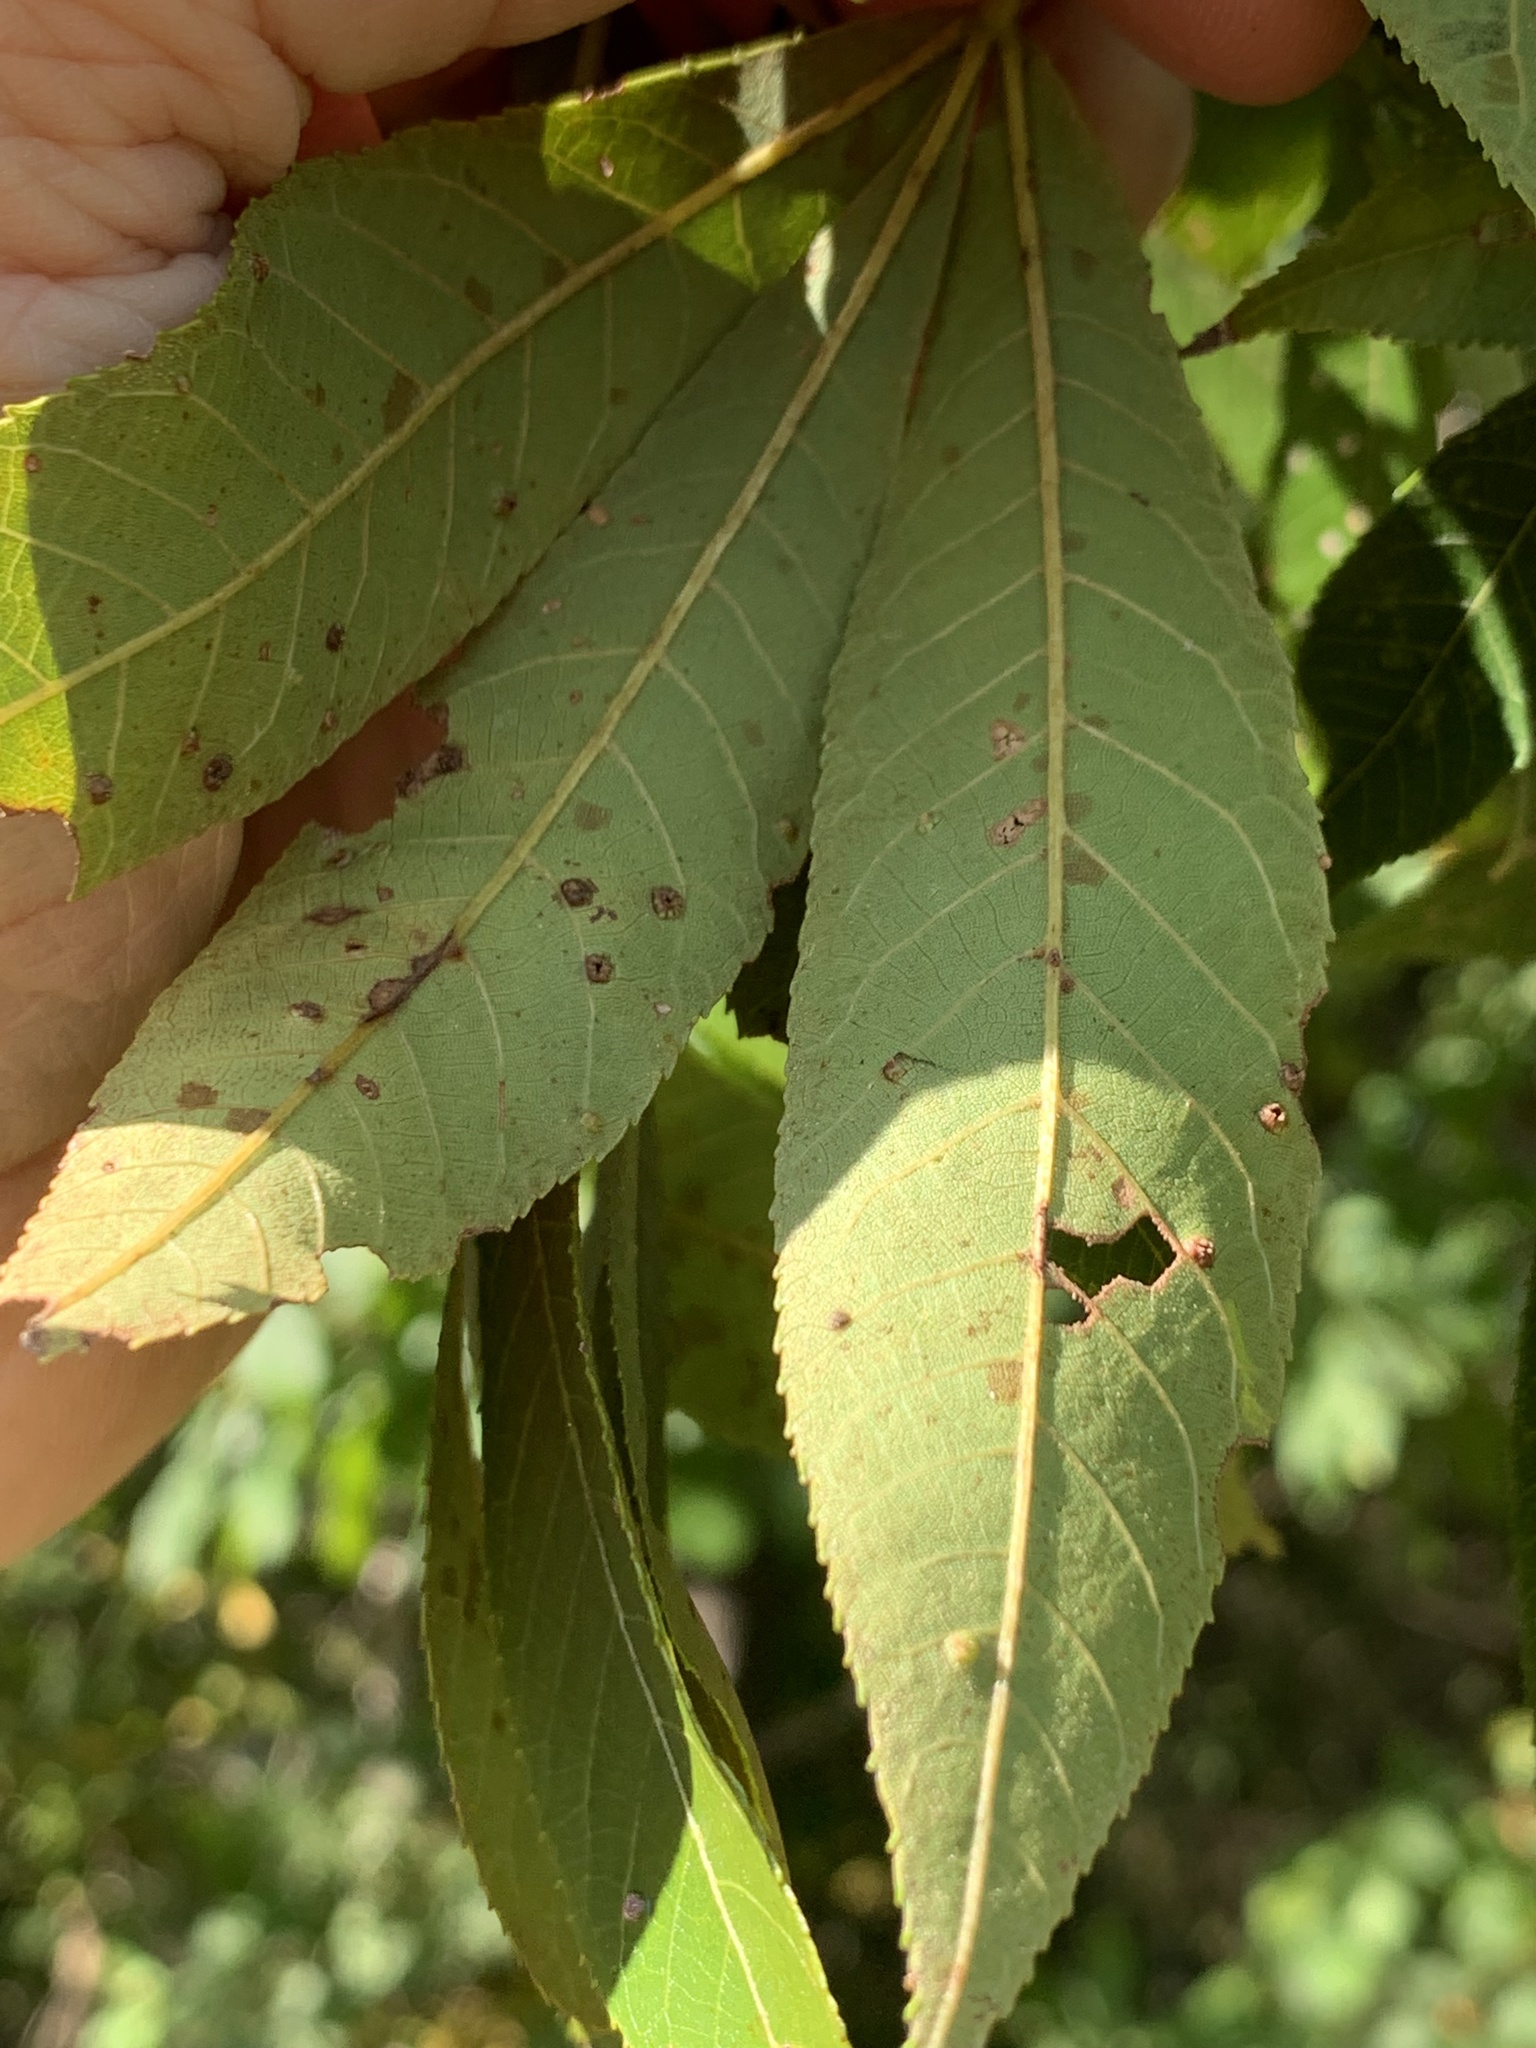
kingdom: Animalia
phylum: Arthropoda
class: Insecta
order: Hemiptera
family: Phylloxeridae
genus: Phylloxera
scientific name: Phylloxera caryae-semen
